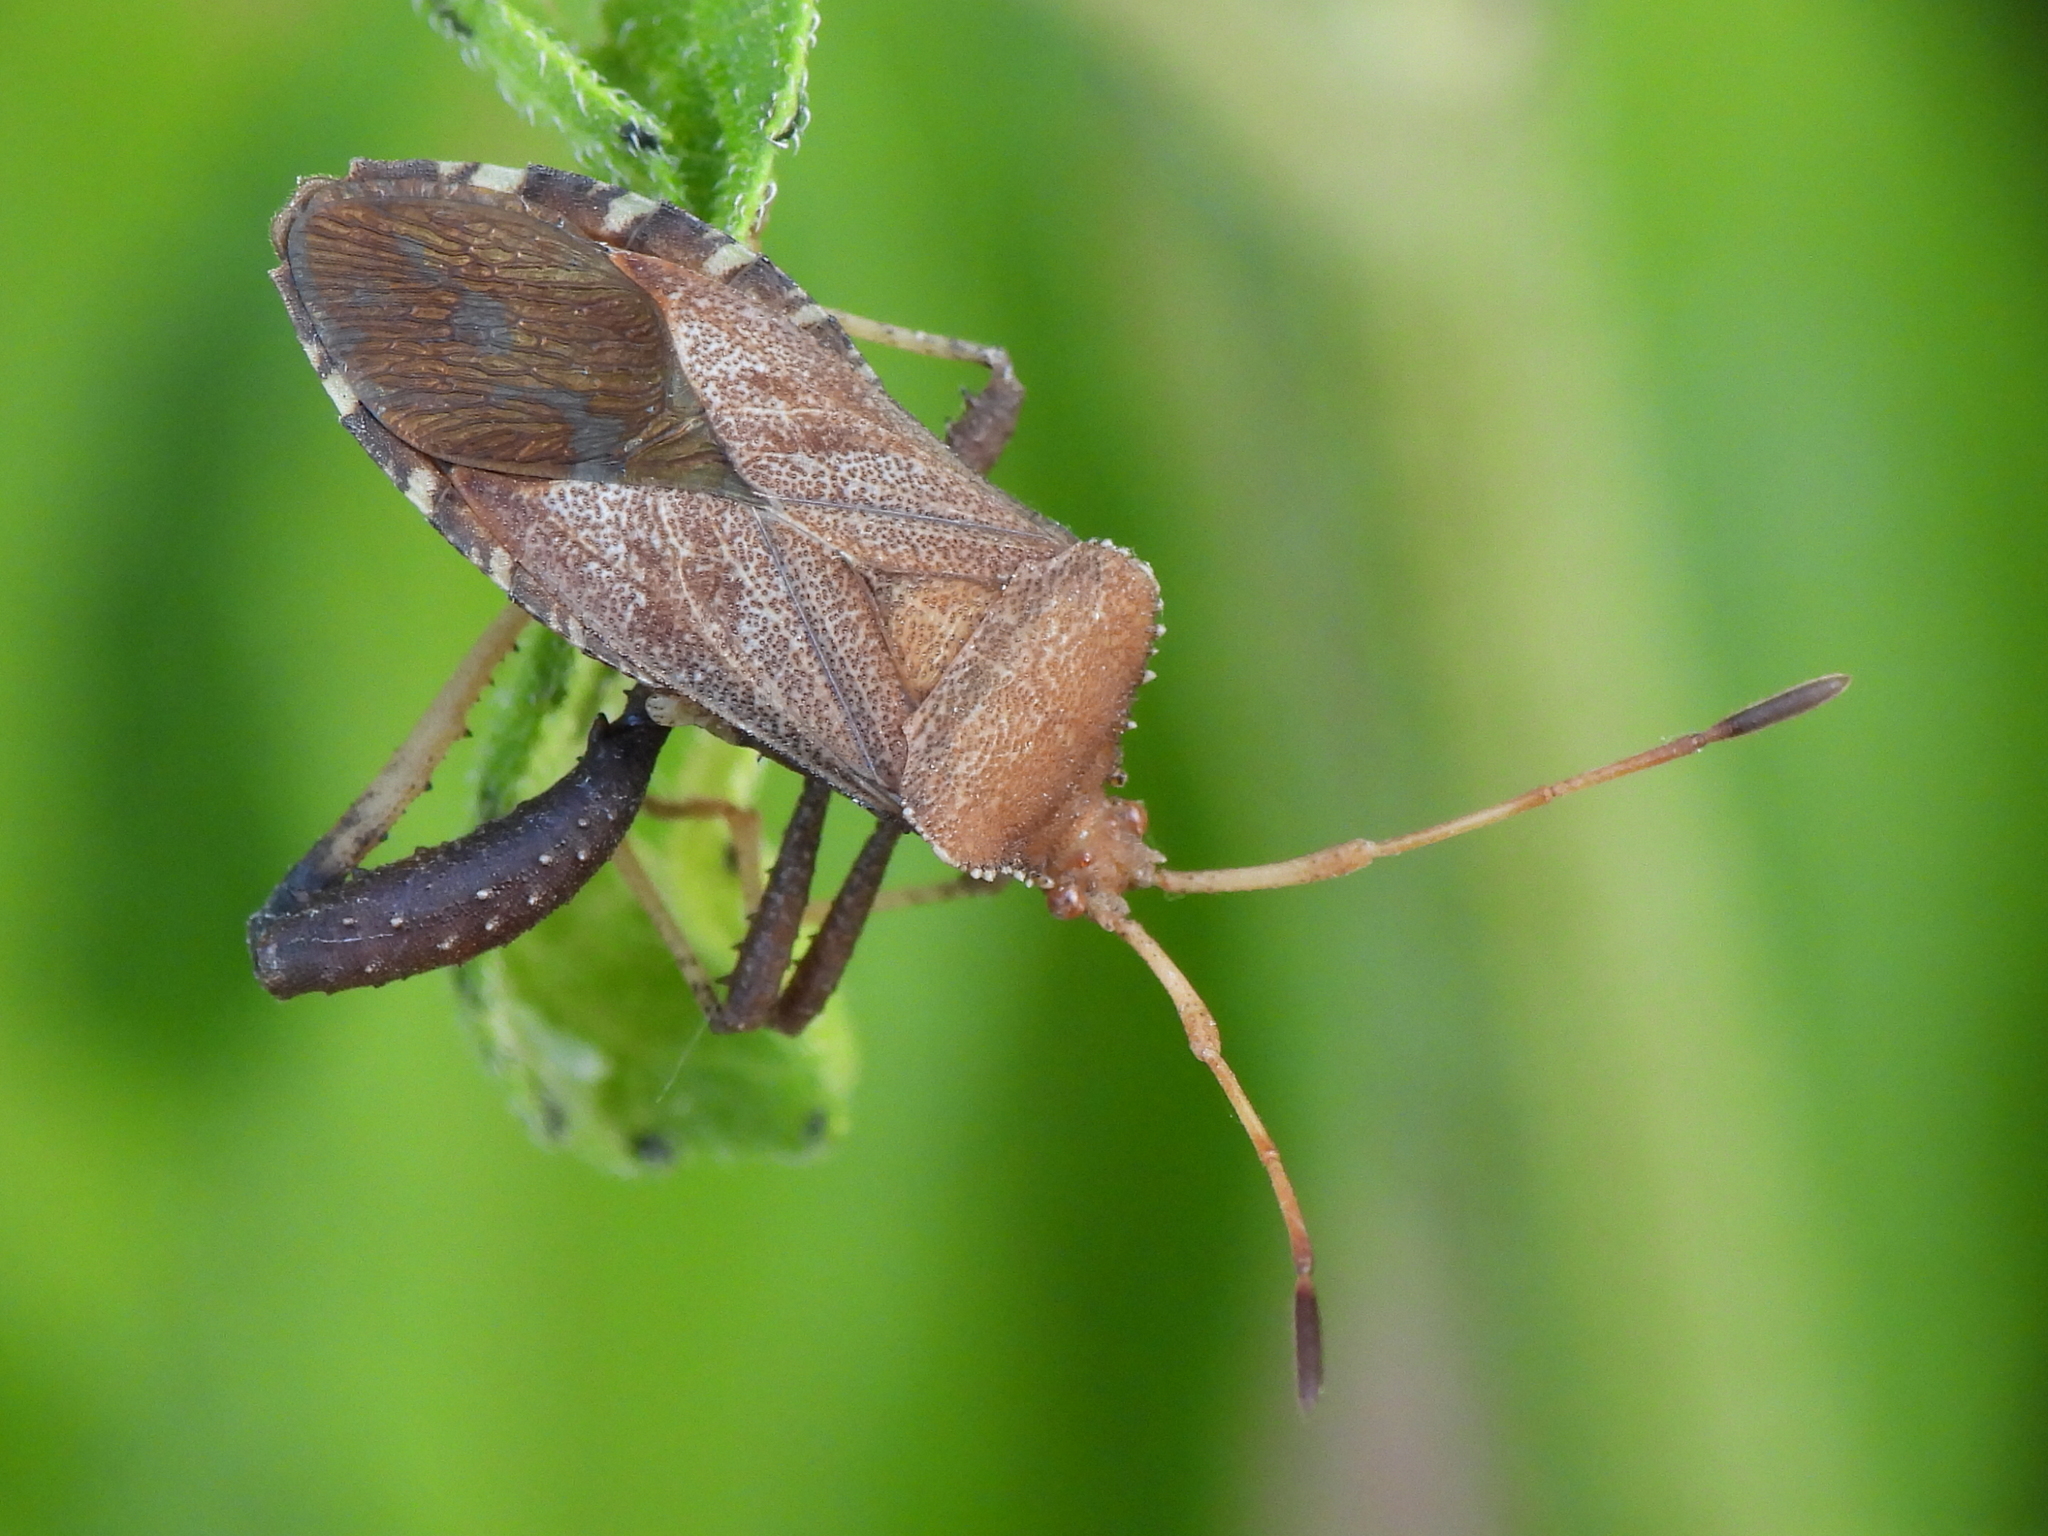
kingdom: Animalia
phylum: Arthropoda
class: Insecta
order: Hemiptera
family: Coreidae
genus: Euthochtha
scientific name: Euthochtha galeator
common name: Helmeted squash bug
